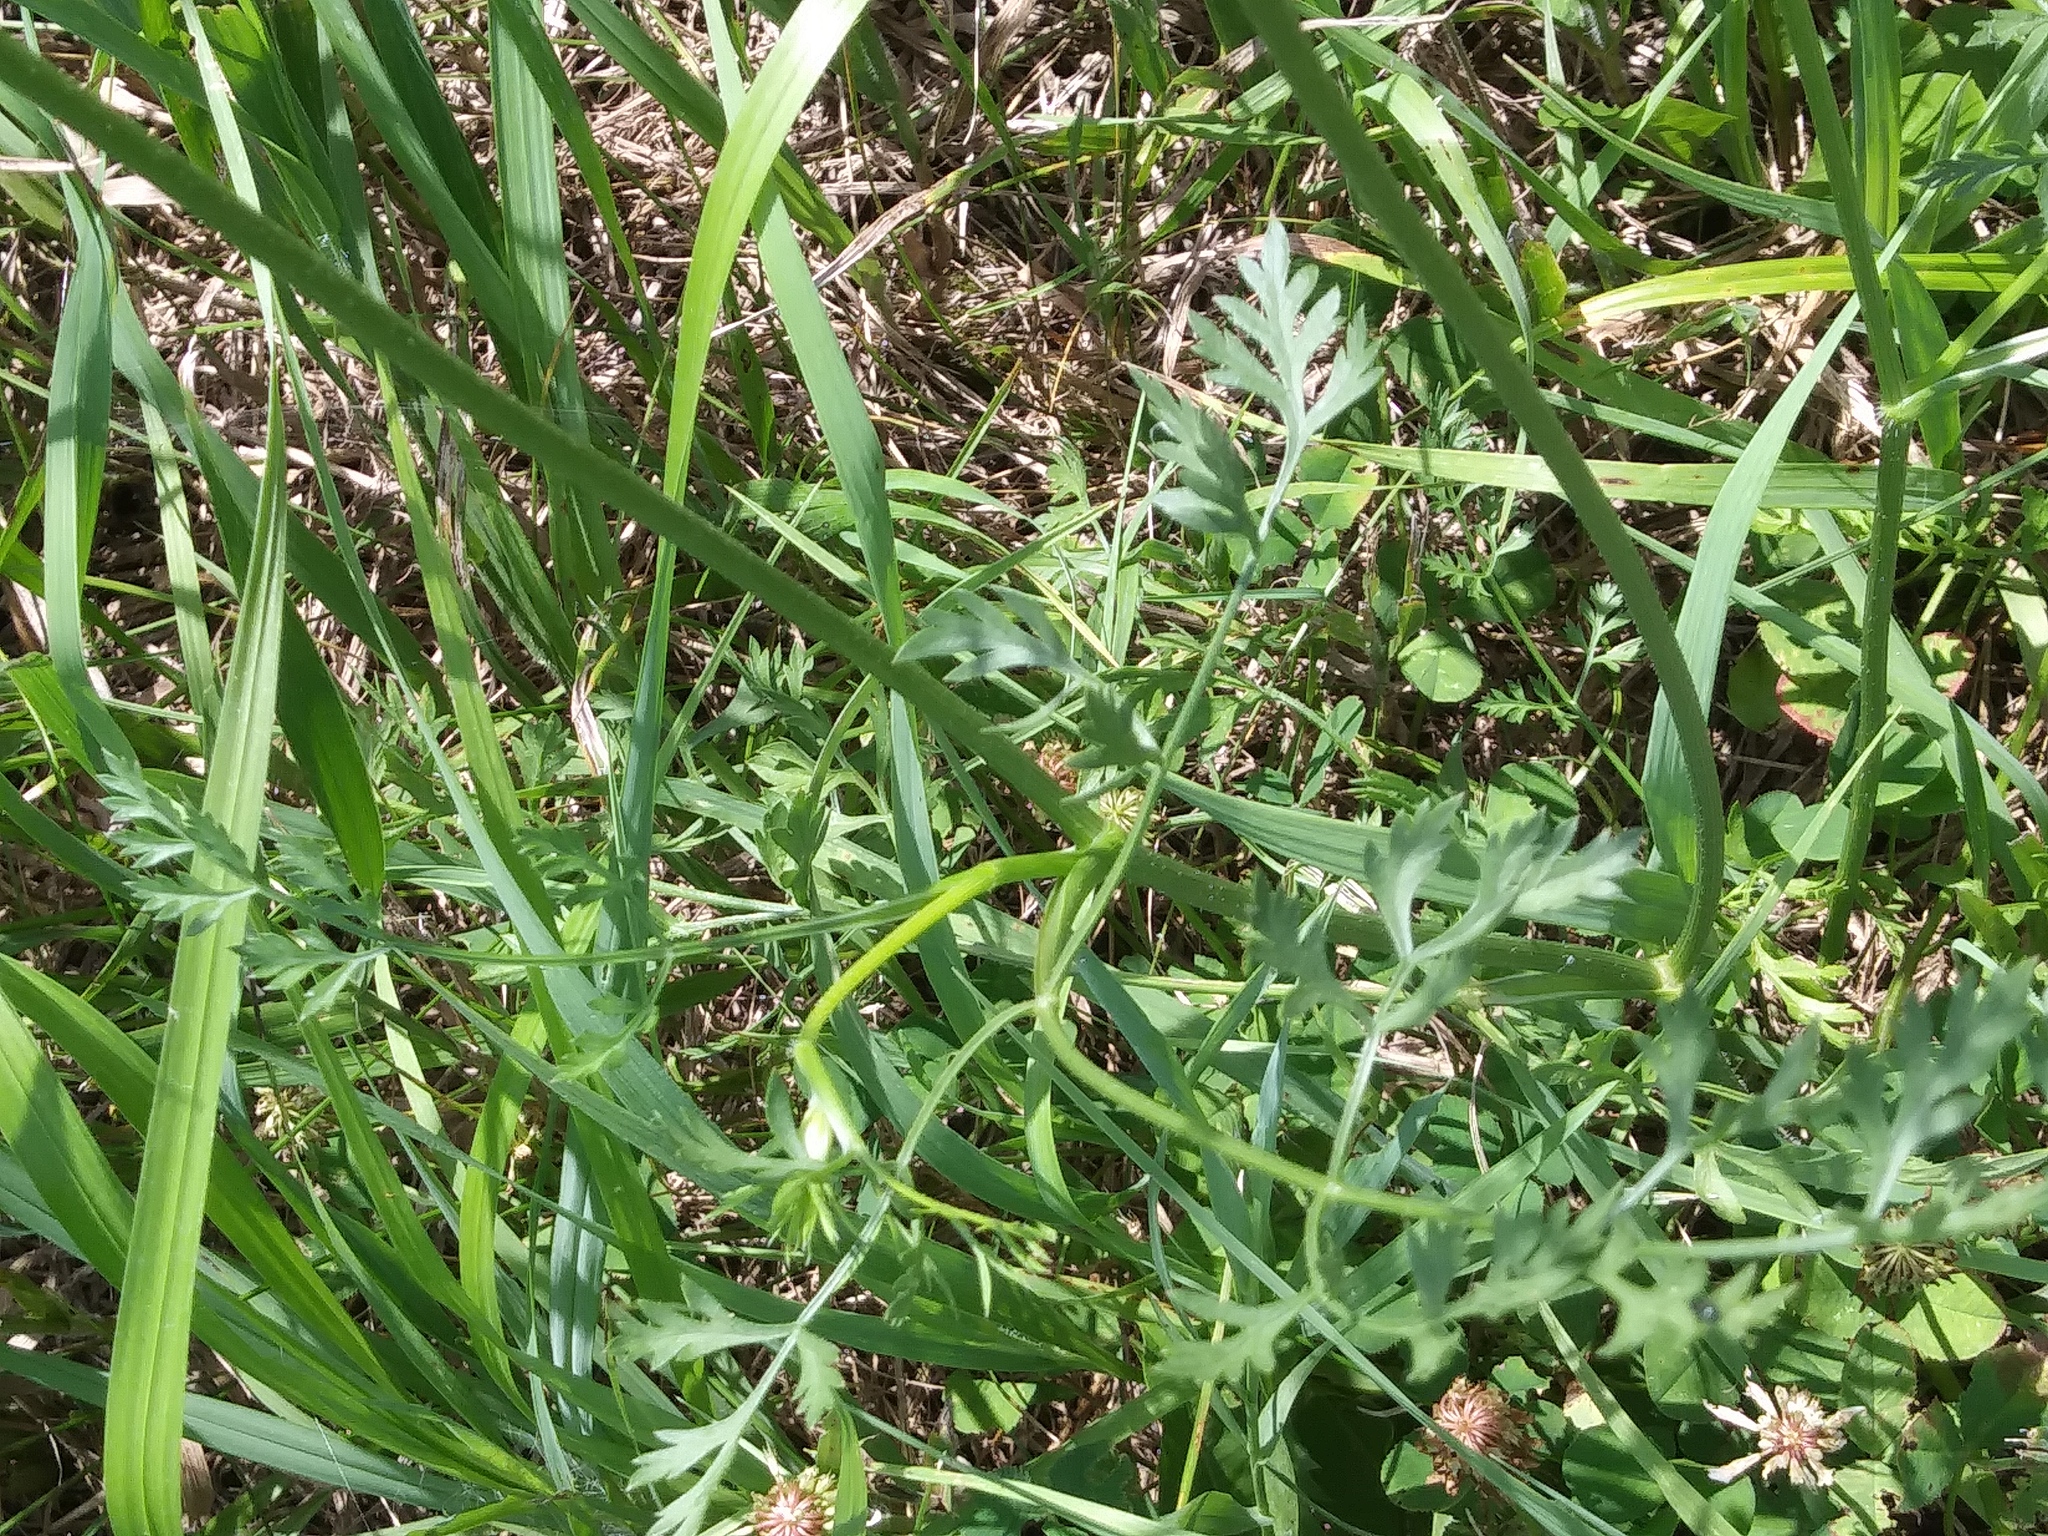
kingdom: Plantae
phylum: Tracheophyta
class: Magnoliopsida
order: Apiales
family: Apiaceae
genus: Daucus
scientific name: Daucus carota
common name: Wild carrot
